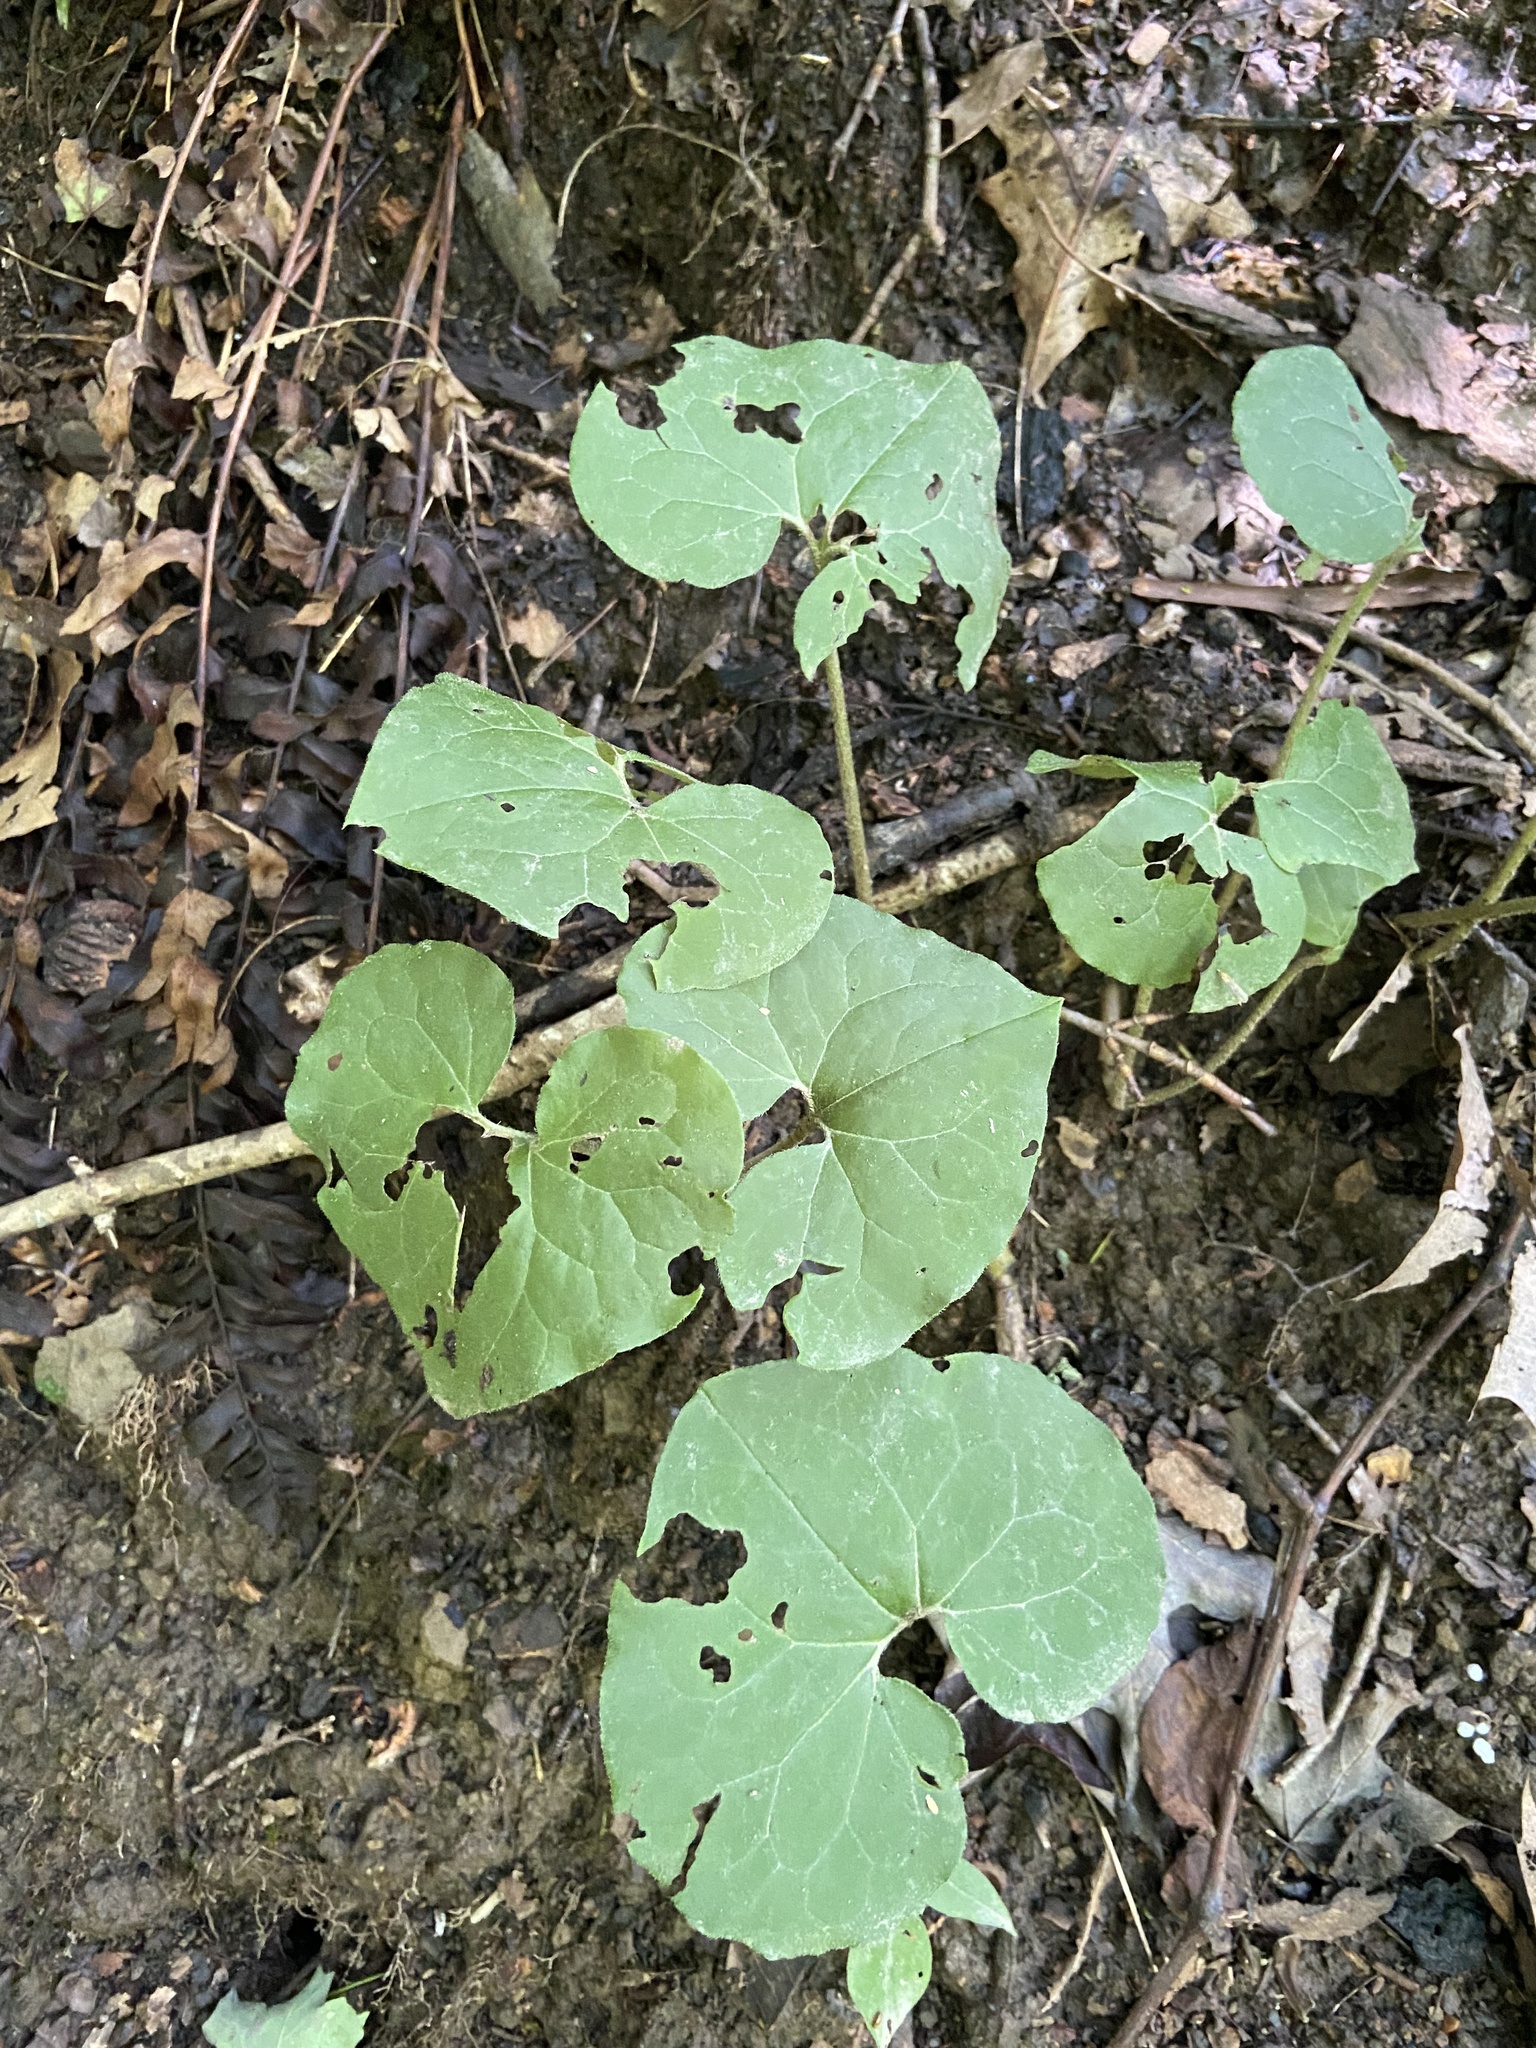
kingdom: Plantae
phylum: Tracheophyta
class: Magnoliopsida
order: Piperales
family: Aristolochiaceae
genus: Asarum
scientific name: Asarum canadense
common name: Wild ginger
